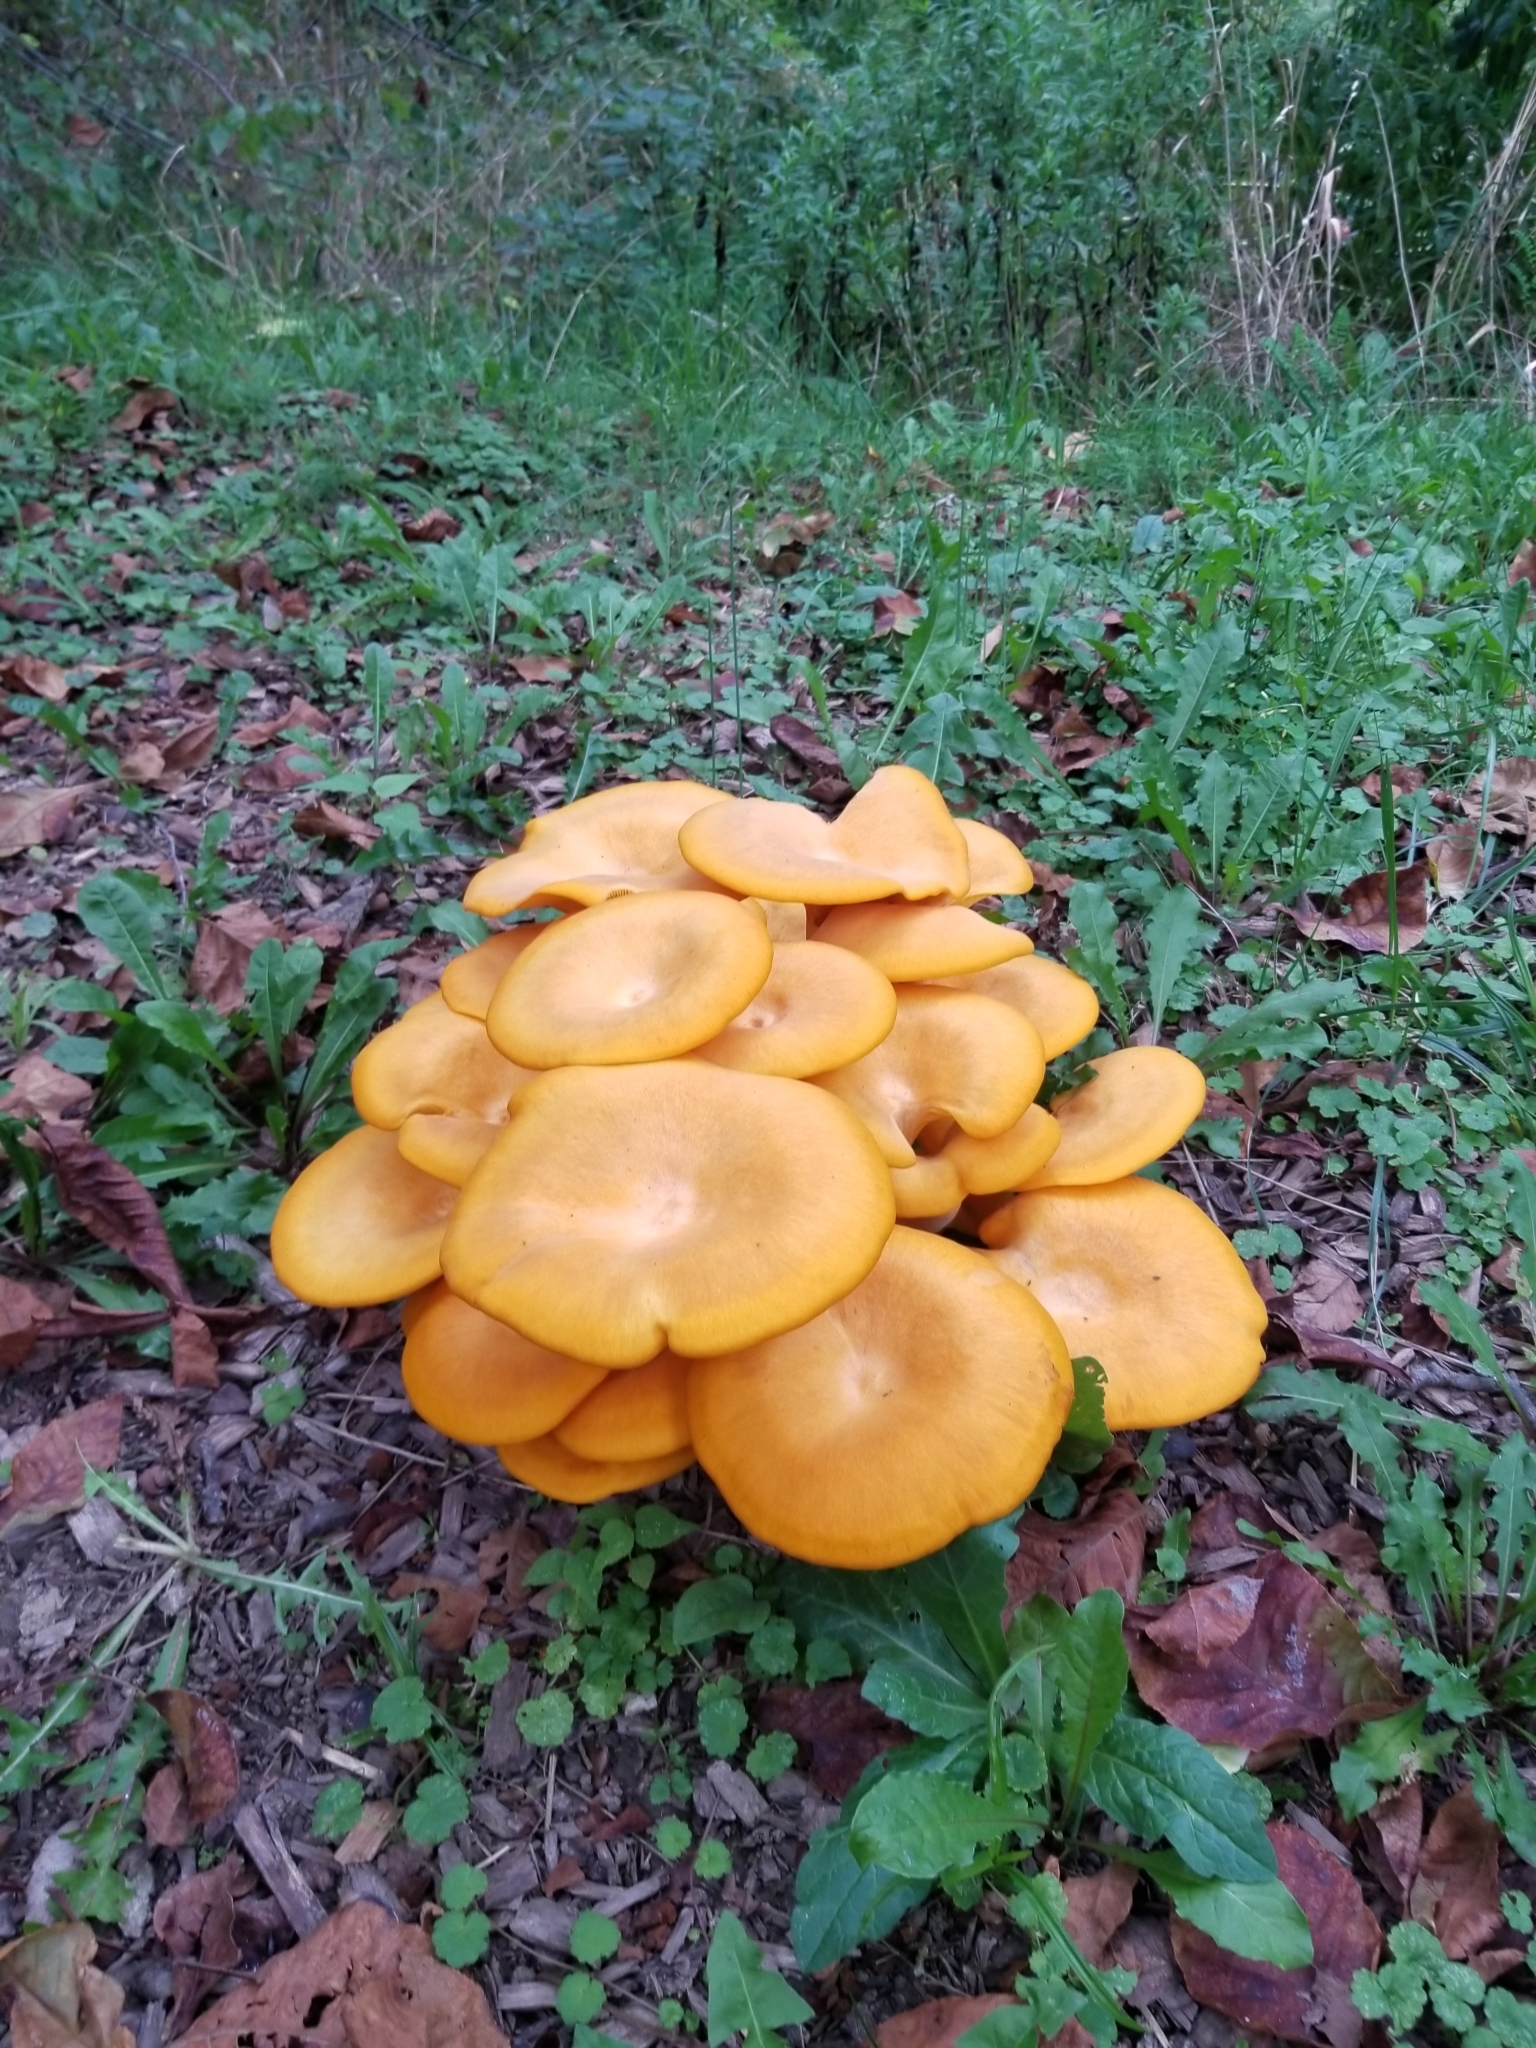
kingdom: Fungi
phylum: Basidiomycota
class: Agaricomycetes
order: Agaricales
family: Omphalotaceae
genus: Omphalotus
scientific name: Omphalotus illudens
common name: Jack o lantern
